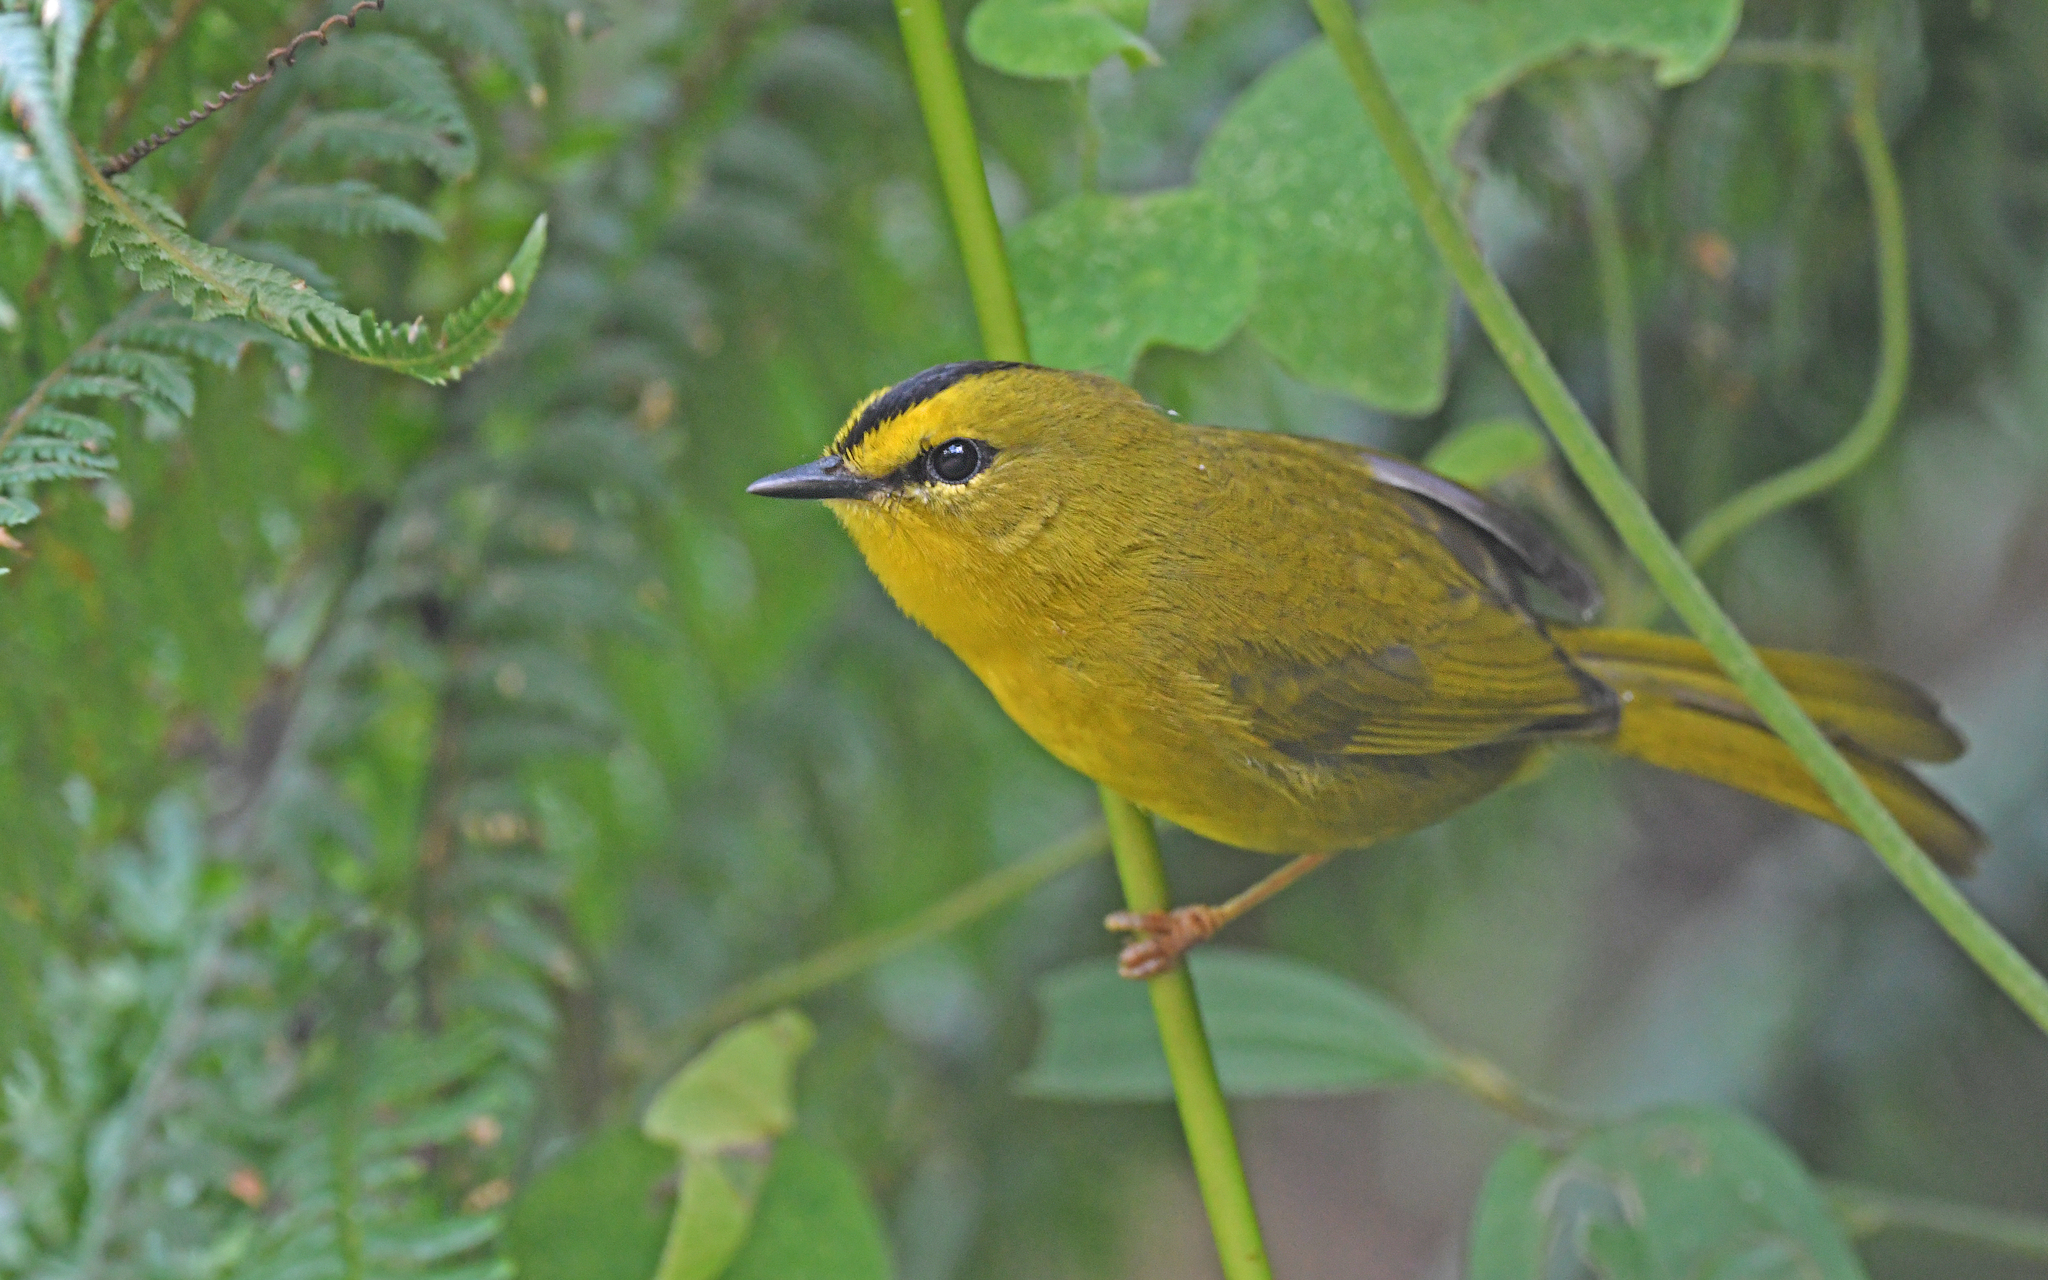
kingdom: Animalia
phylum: Chordata
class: Aves
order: Passeriformes
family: Parulidae
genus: Myiothlypis
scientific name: Myiothlypis nigrocristata
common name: Black-crested warbler
